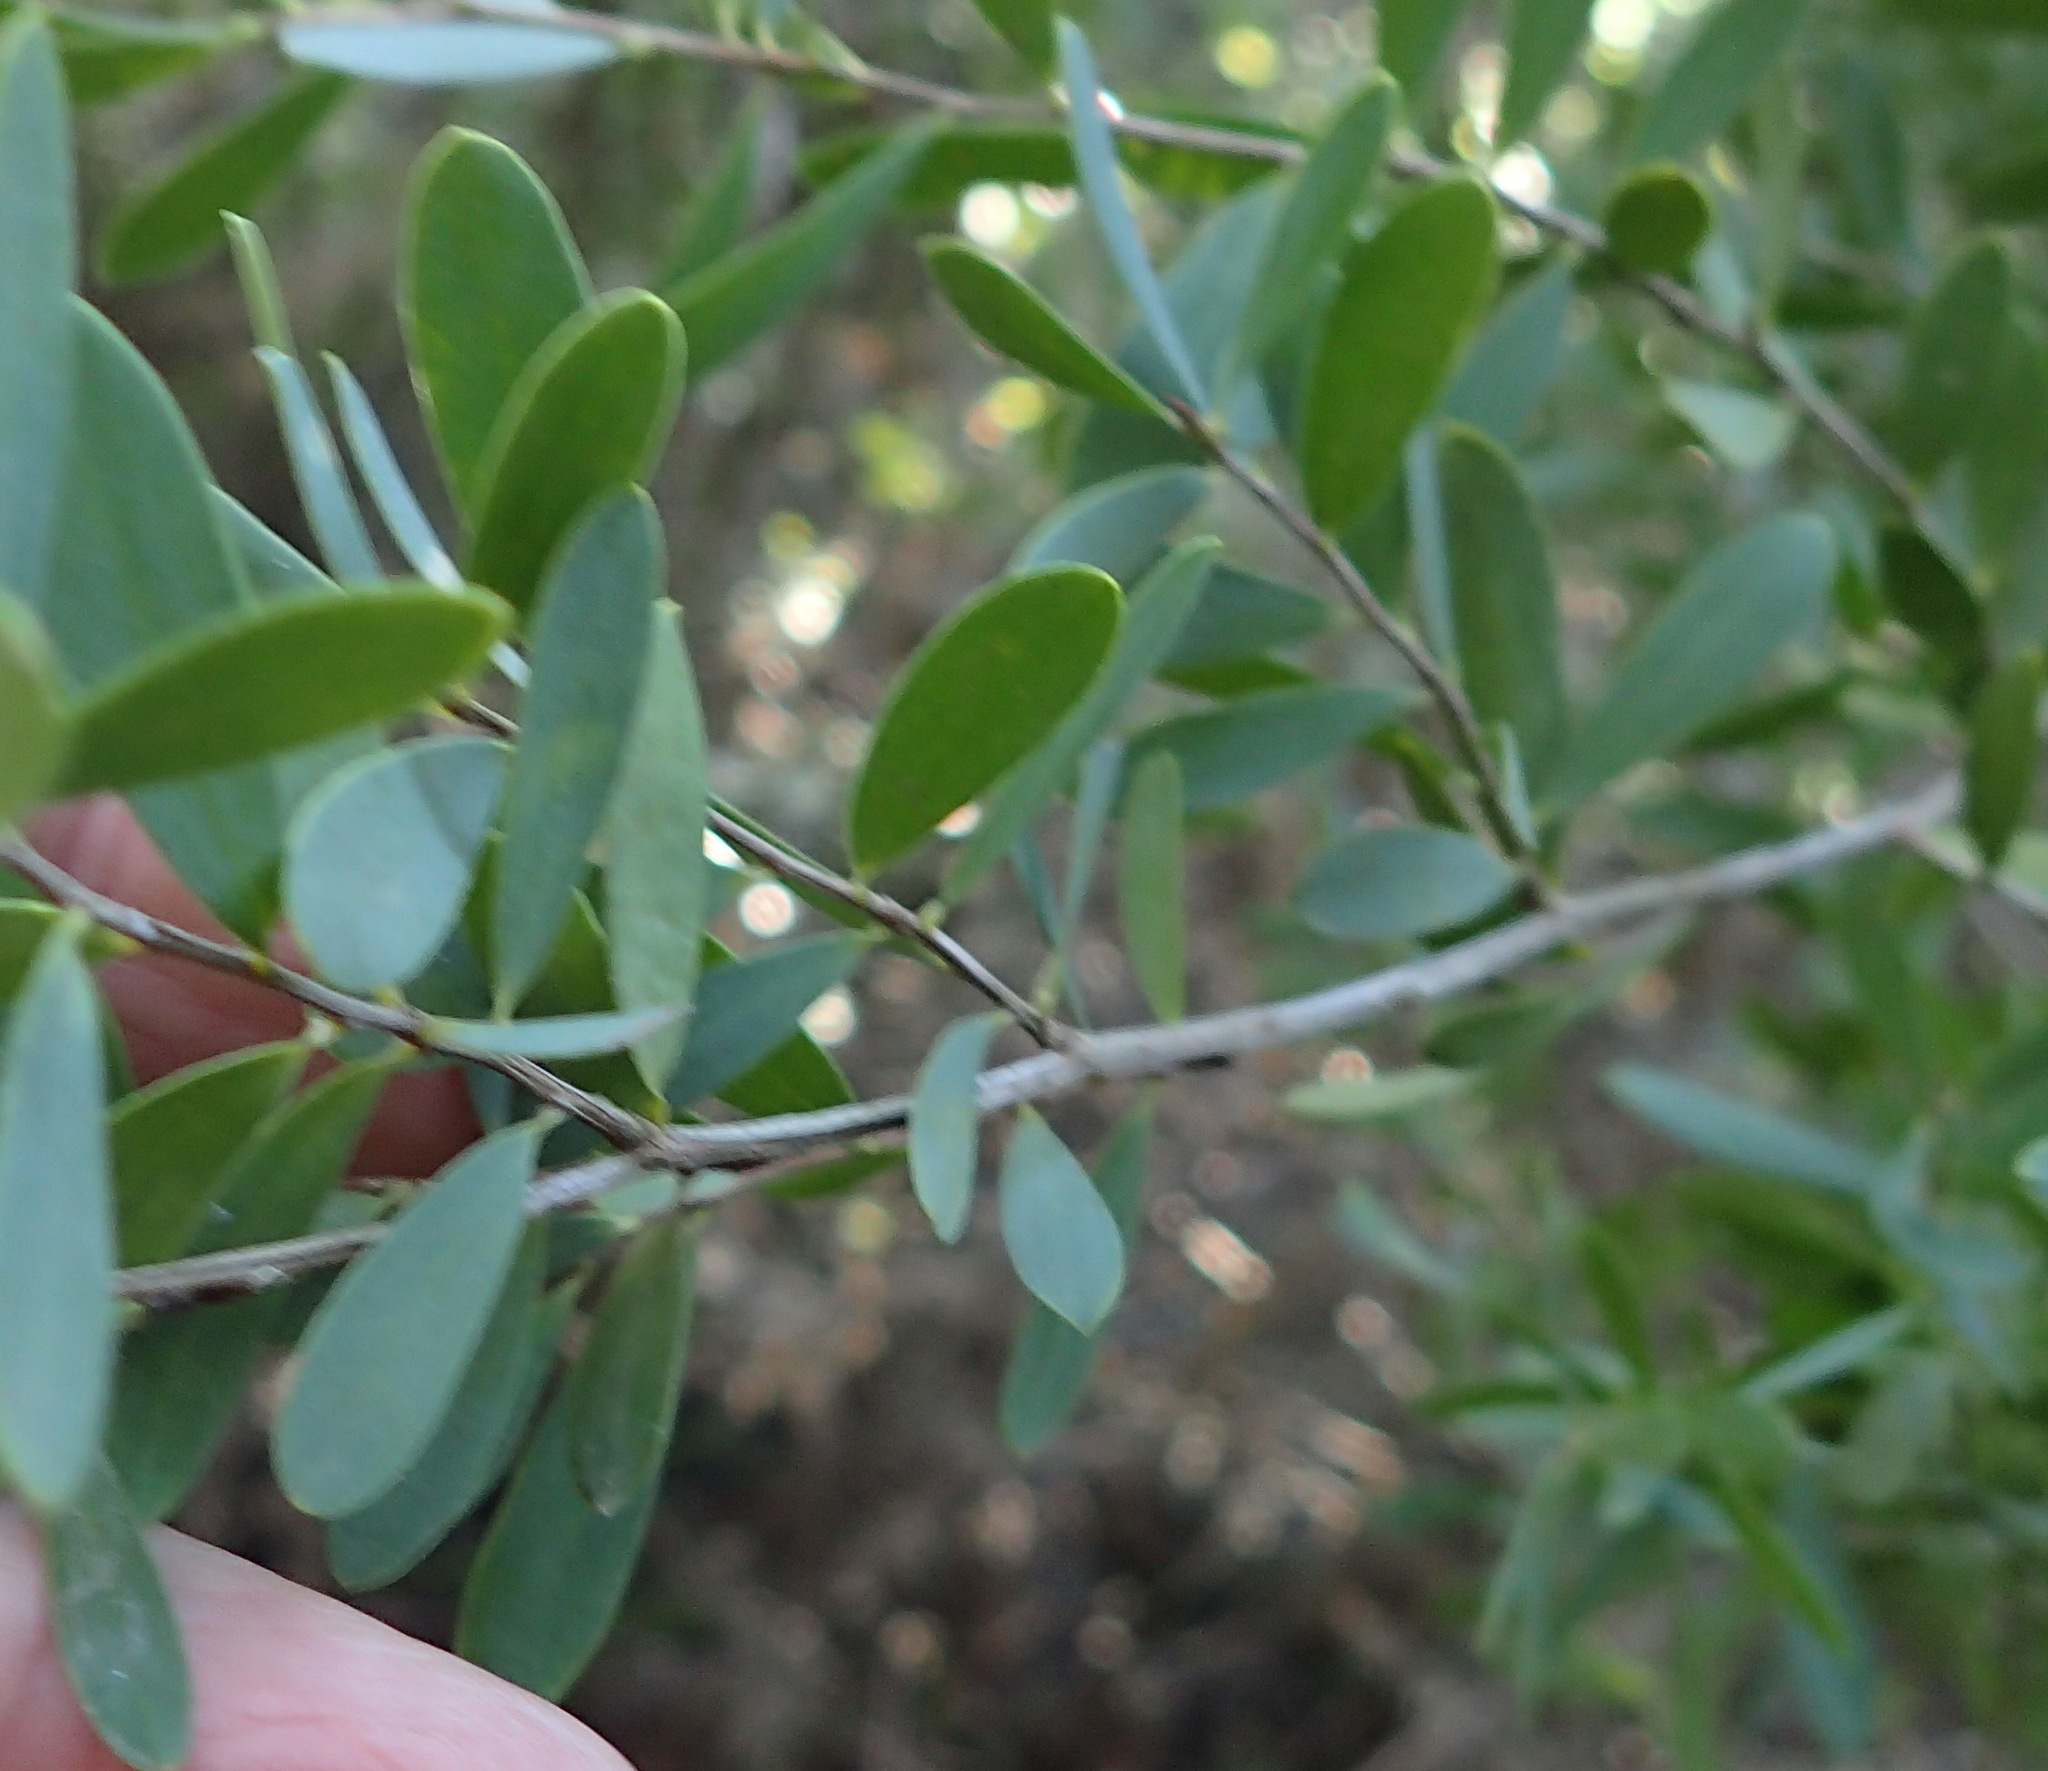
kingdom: Plantae
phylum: Tracheophyta
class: Magnoliopsida
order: Myrtales
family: Myrtaceae
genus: Leptospermum
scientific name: Leptospermum laevigatum
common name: Australian teatree
